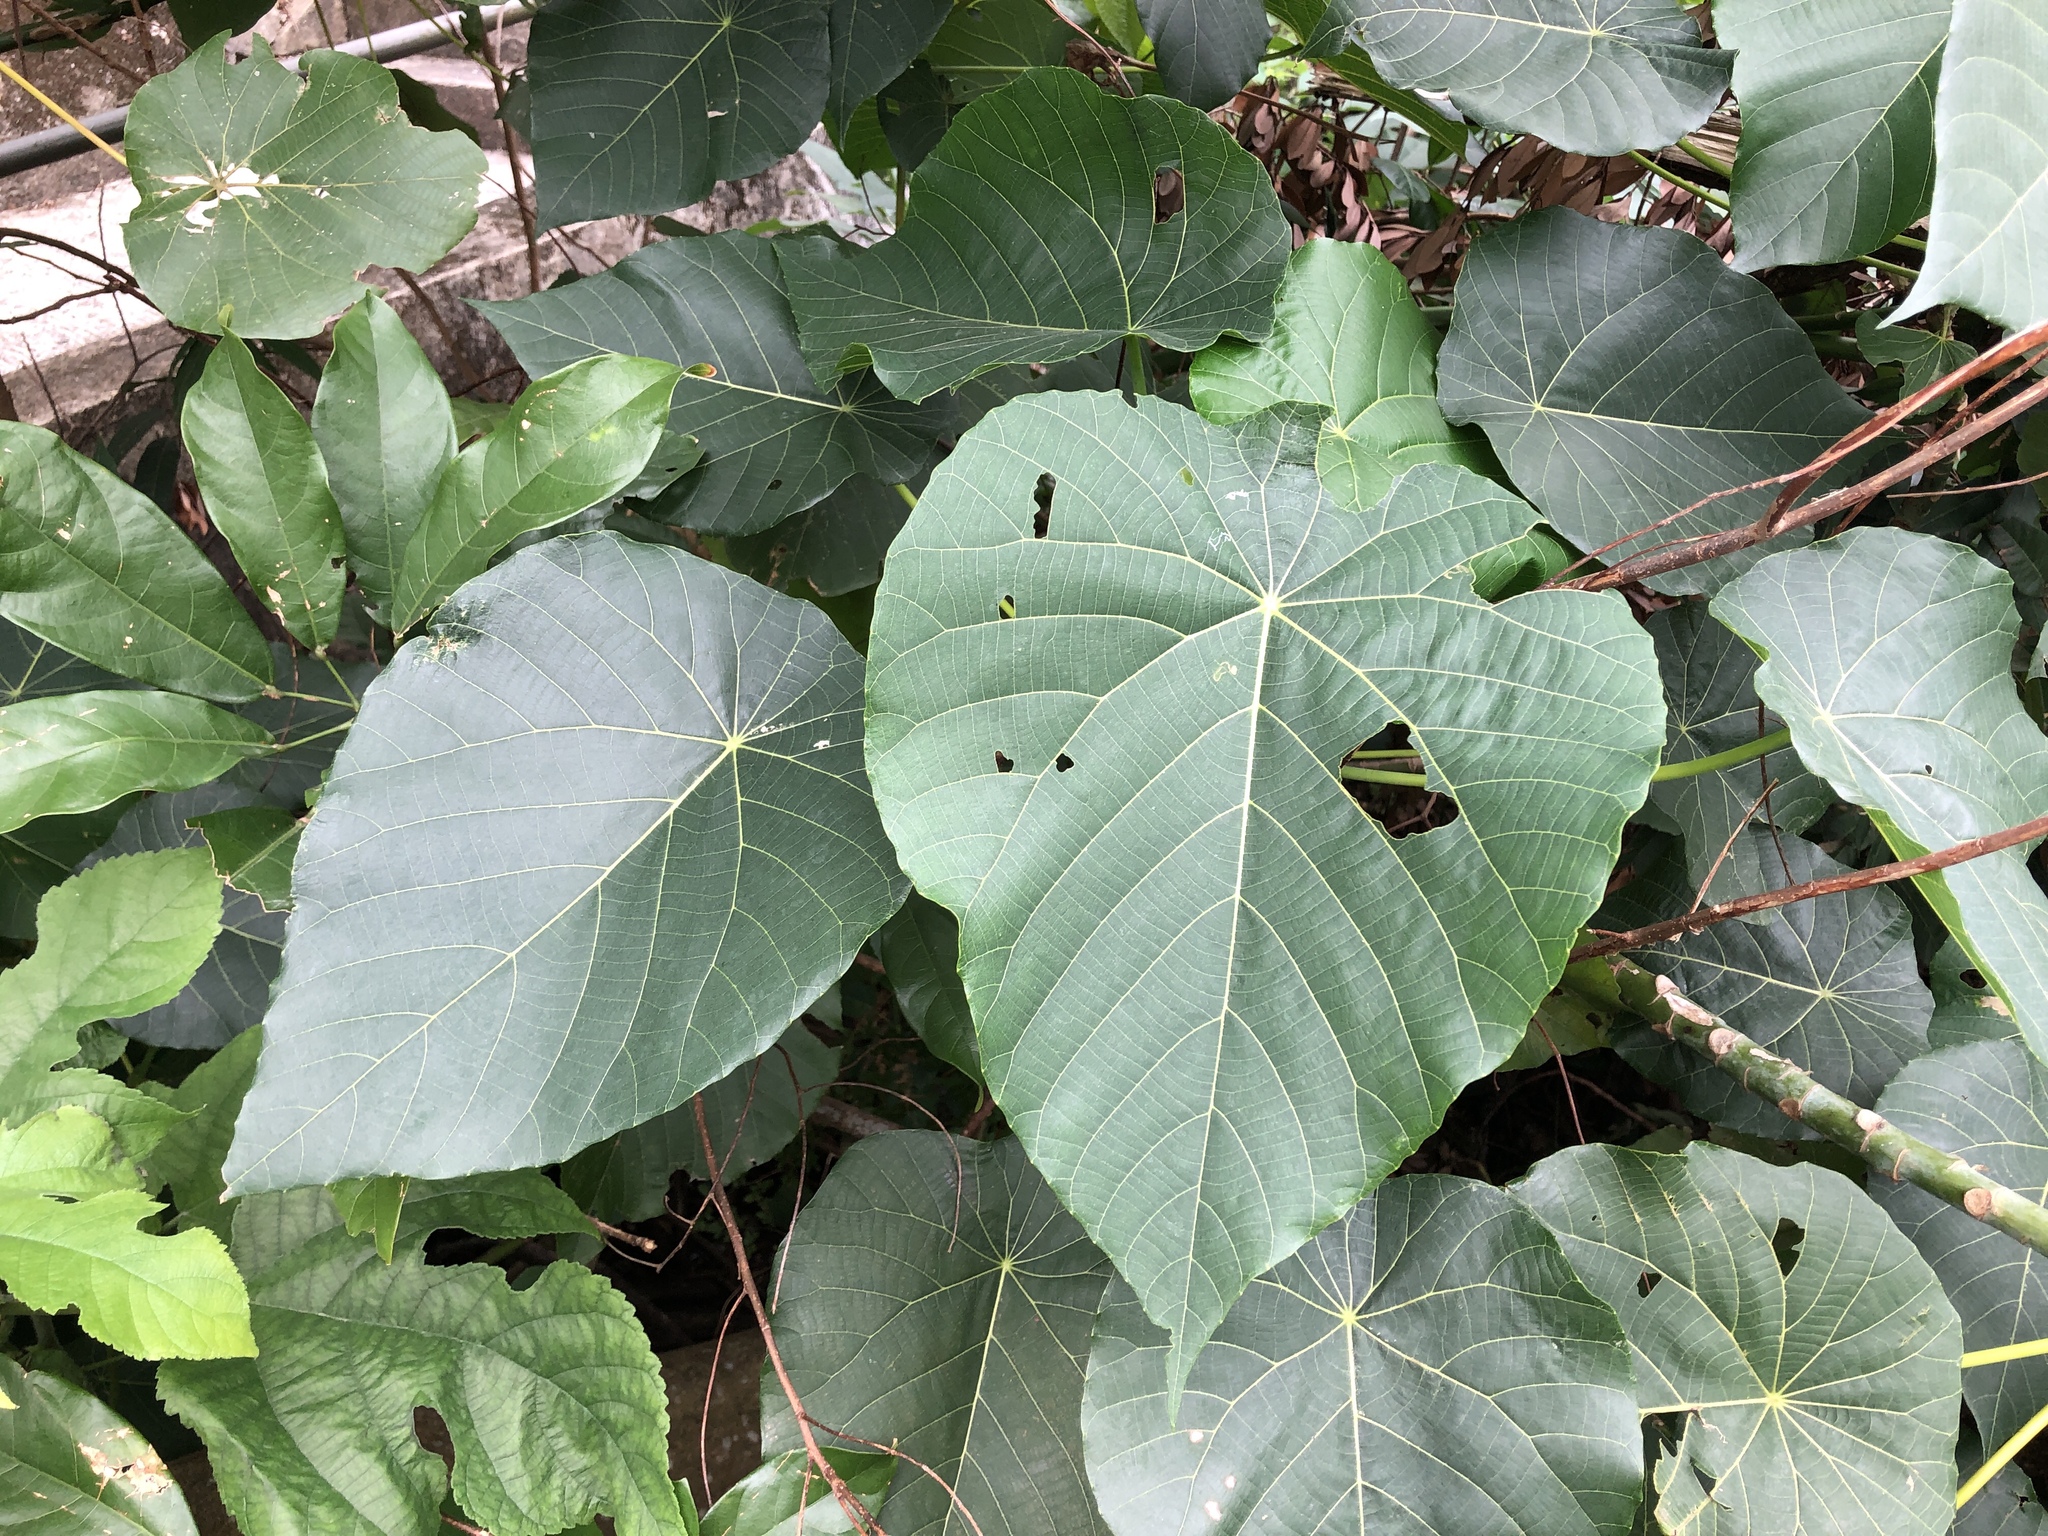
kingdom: Plantae
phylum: Tracheophyta
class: Magnoliopsida
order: Malpighiales
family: Euphorbiaceae
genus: Macaranga
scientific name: Macaranga tanarius
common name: Parasol leaf tree
